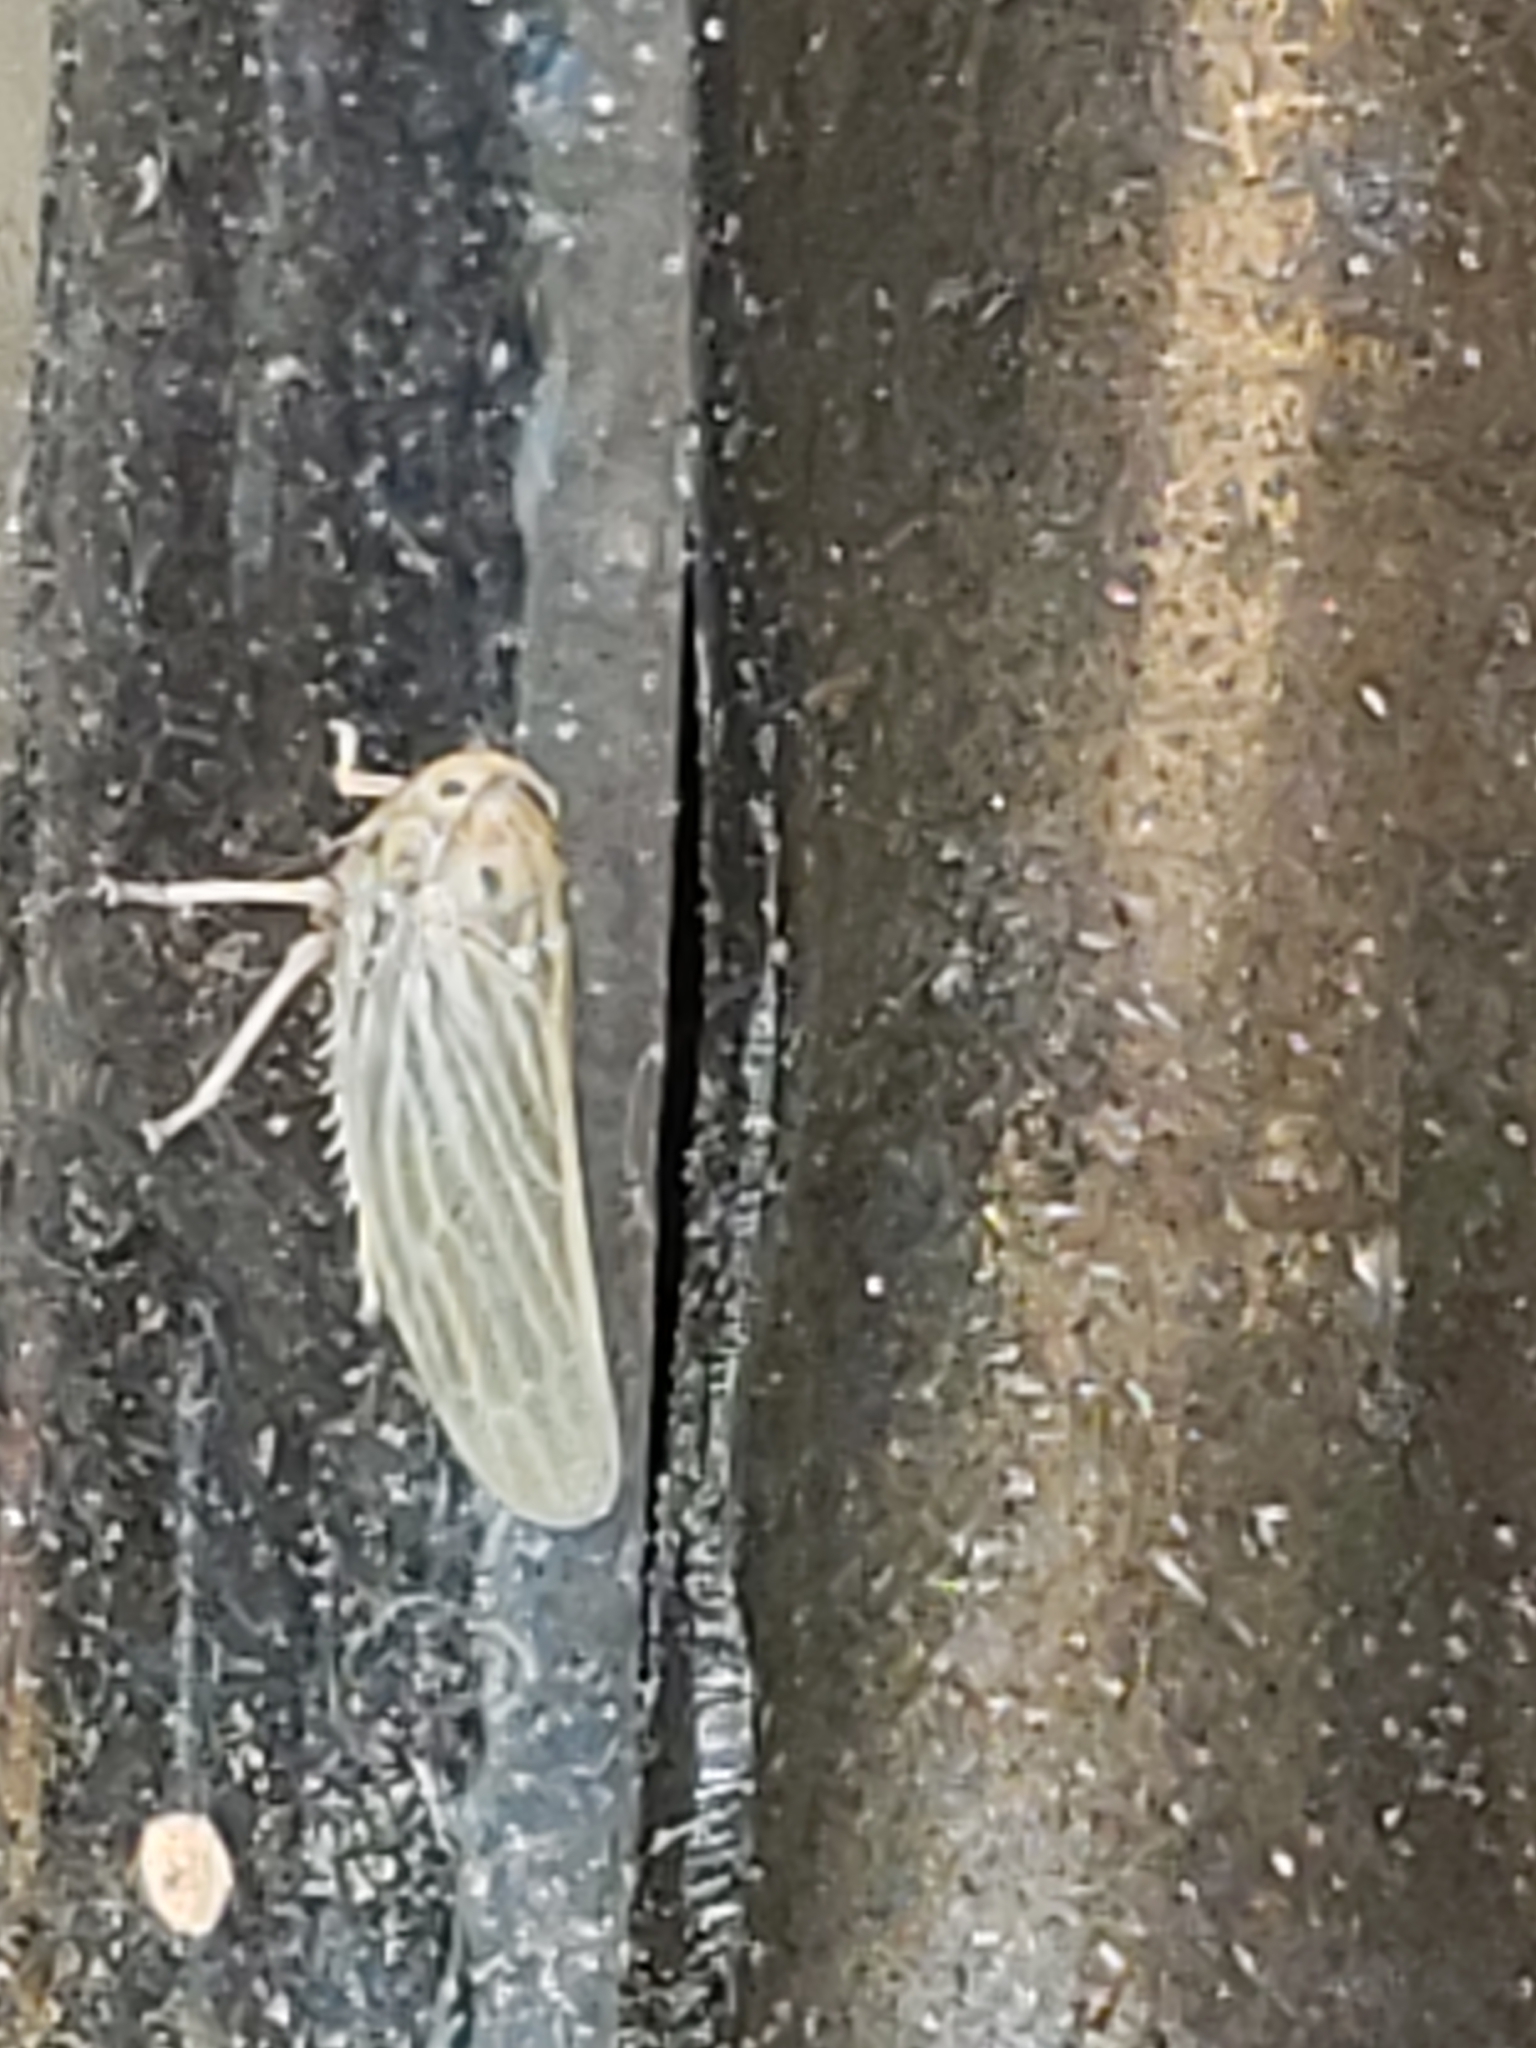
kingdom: Animalia
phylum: Arthropoda
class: Insecta
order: Hemiptera
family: Cicadellidae
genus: Agallia
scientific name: Agallia constricta
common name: The constricted leafhopper
